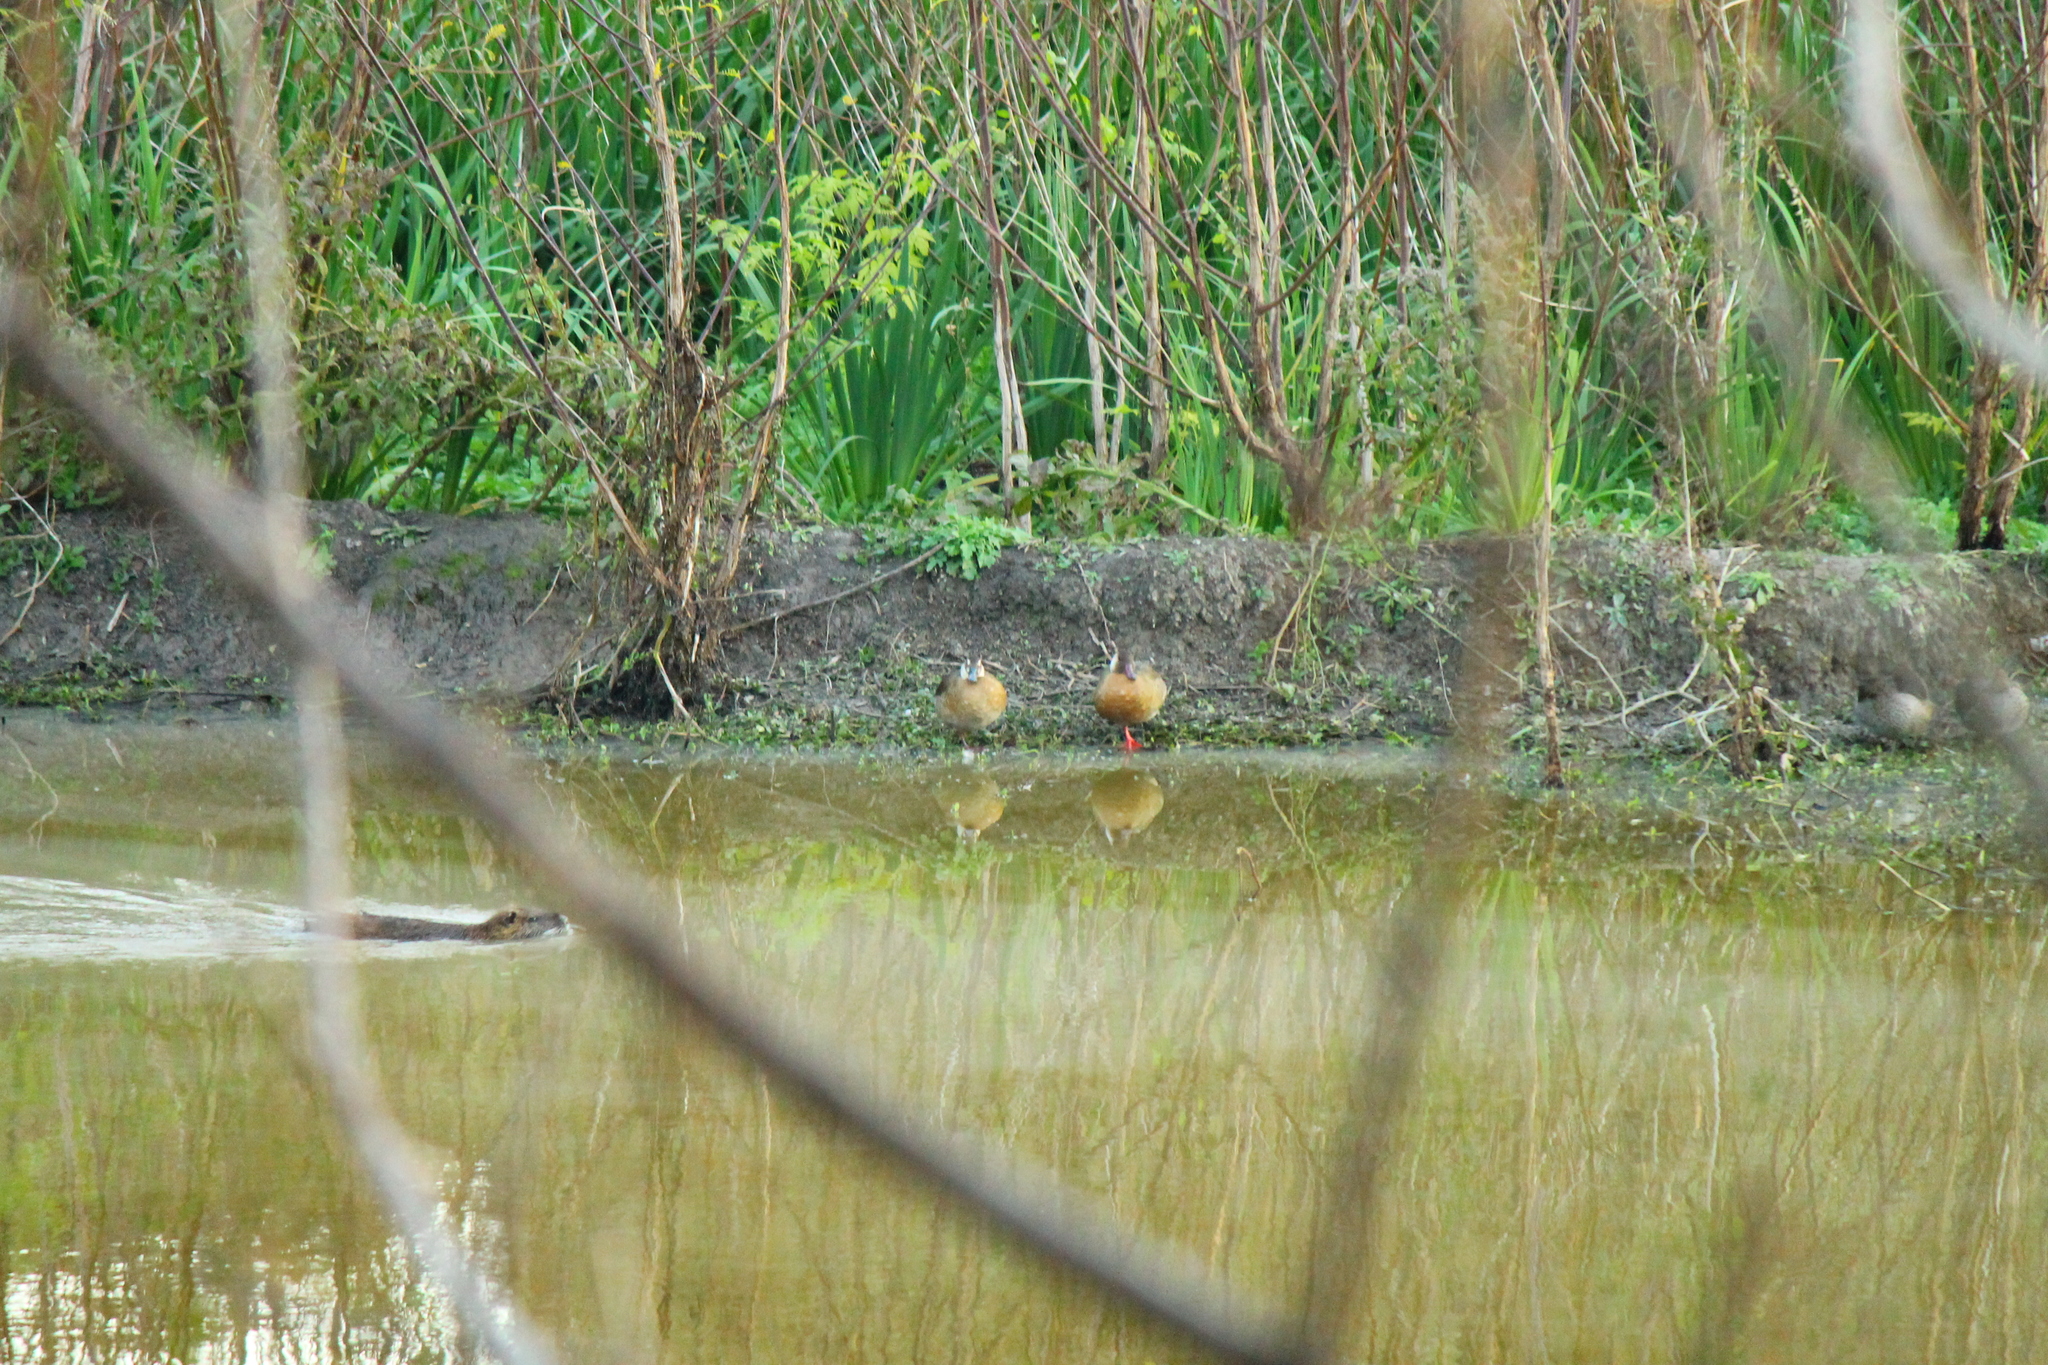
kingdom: Animalia
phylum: Chordata
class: Aves
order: Anseriformes
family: Anatidae
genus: Amazonetta
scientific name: Amazonetta brasiliensis
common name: Brazilian teal
